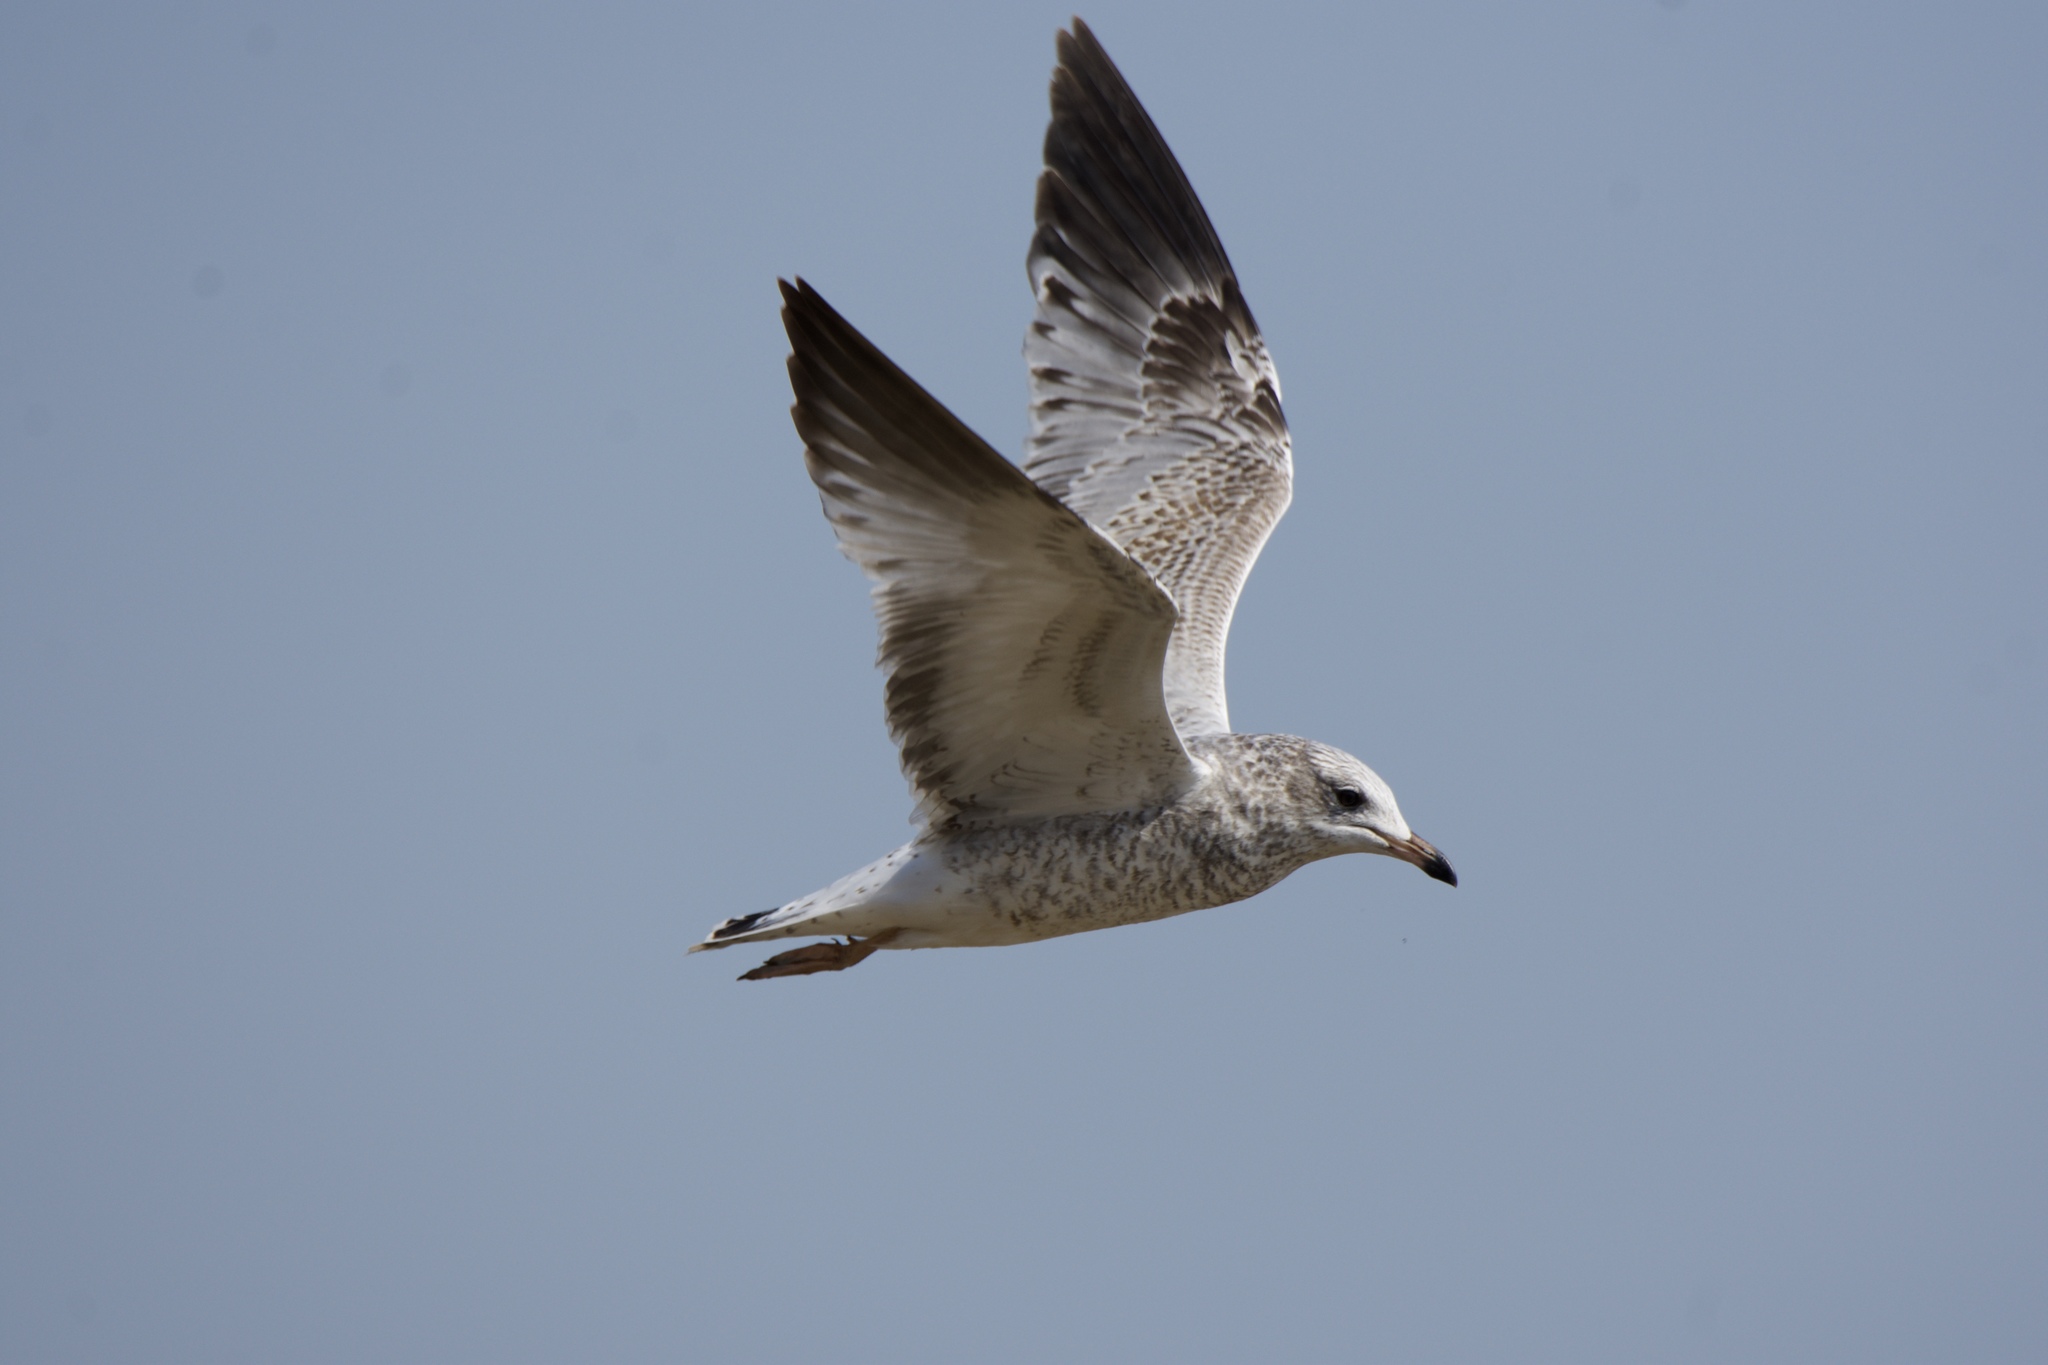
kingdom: Animalia
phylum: Chordata
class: Aves
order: Charadriiformes
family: Laridae
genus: Larus
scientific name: Larus delawarensis
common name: Ring-billed gull
